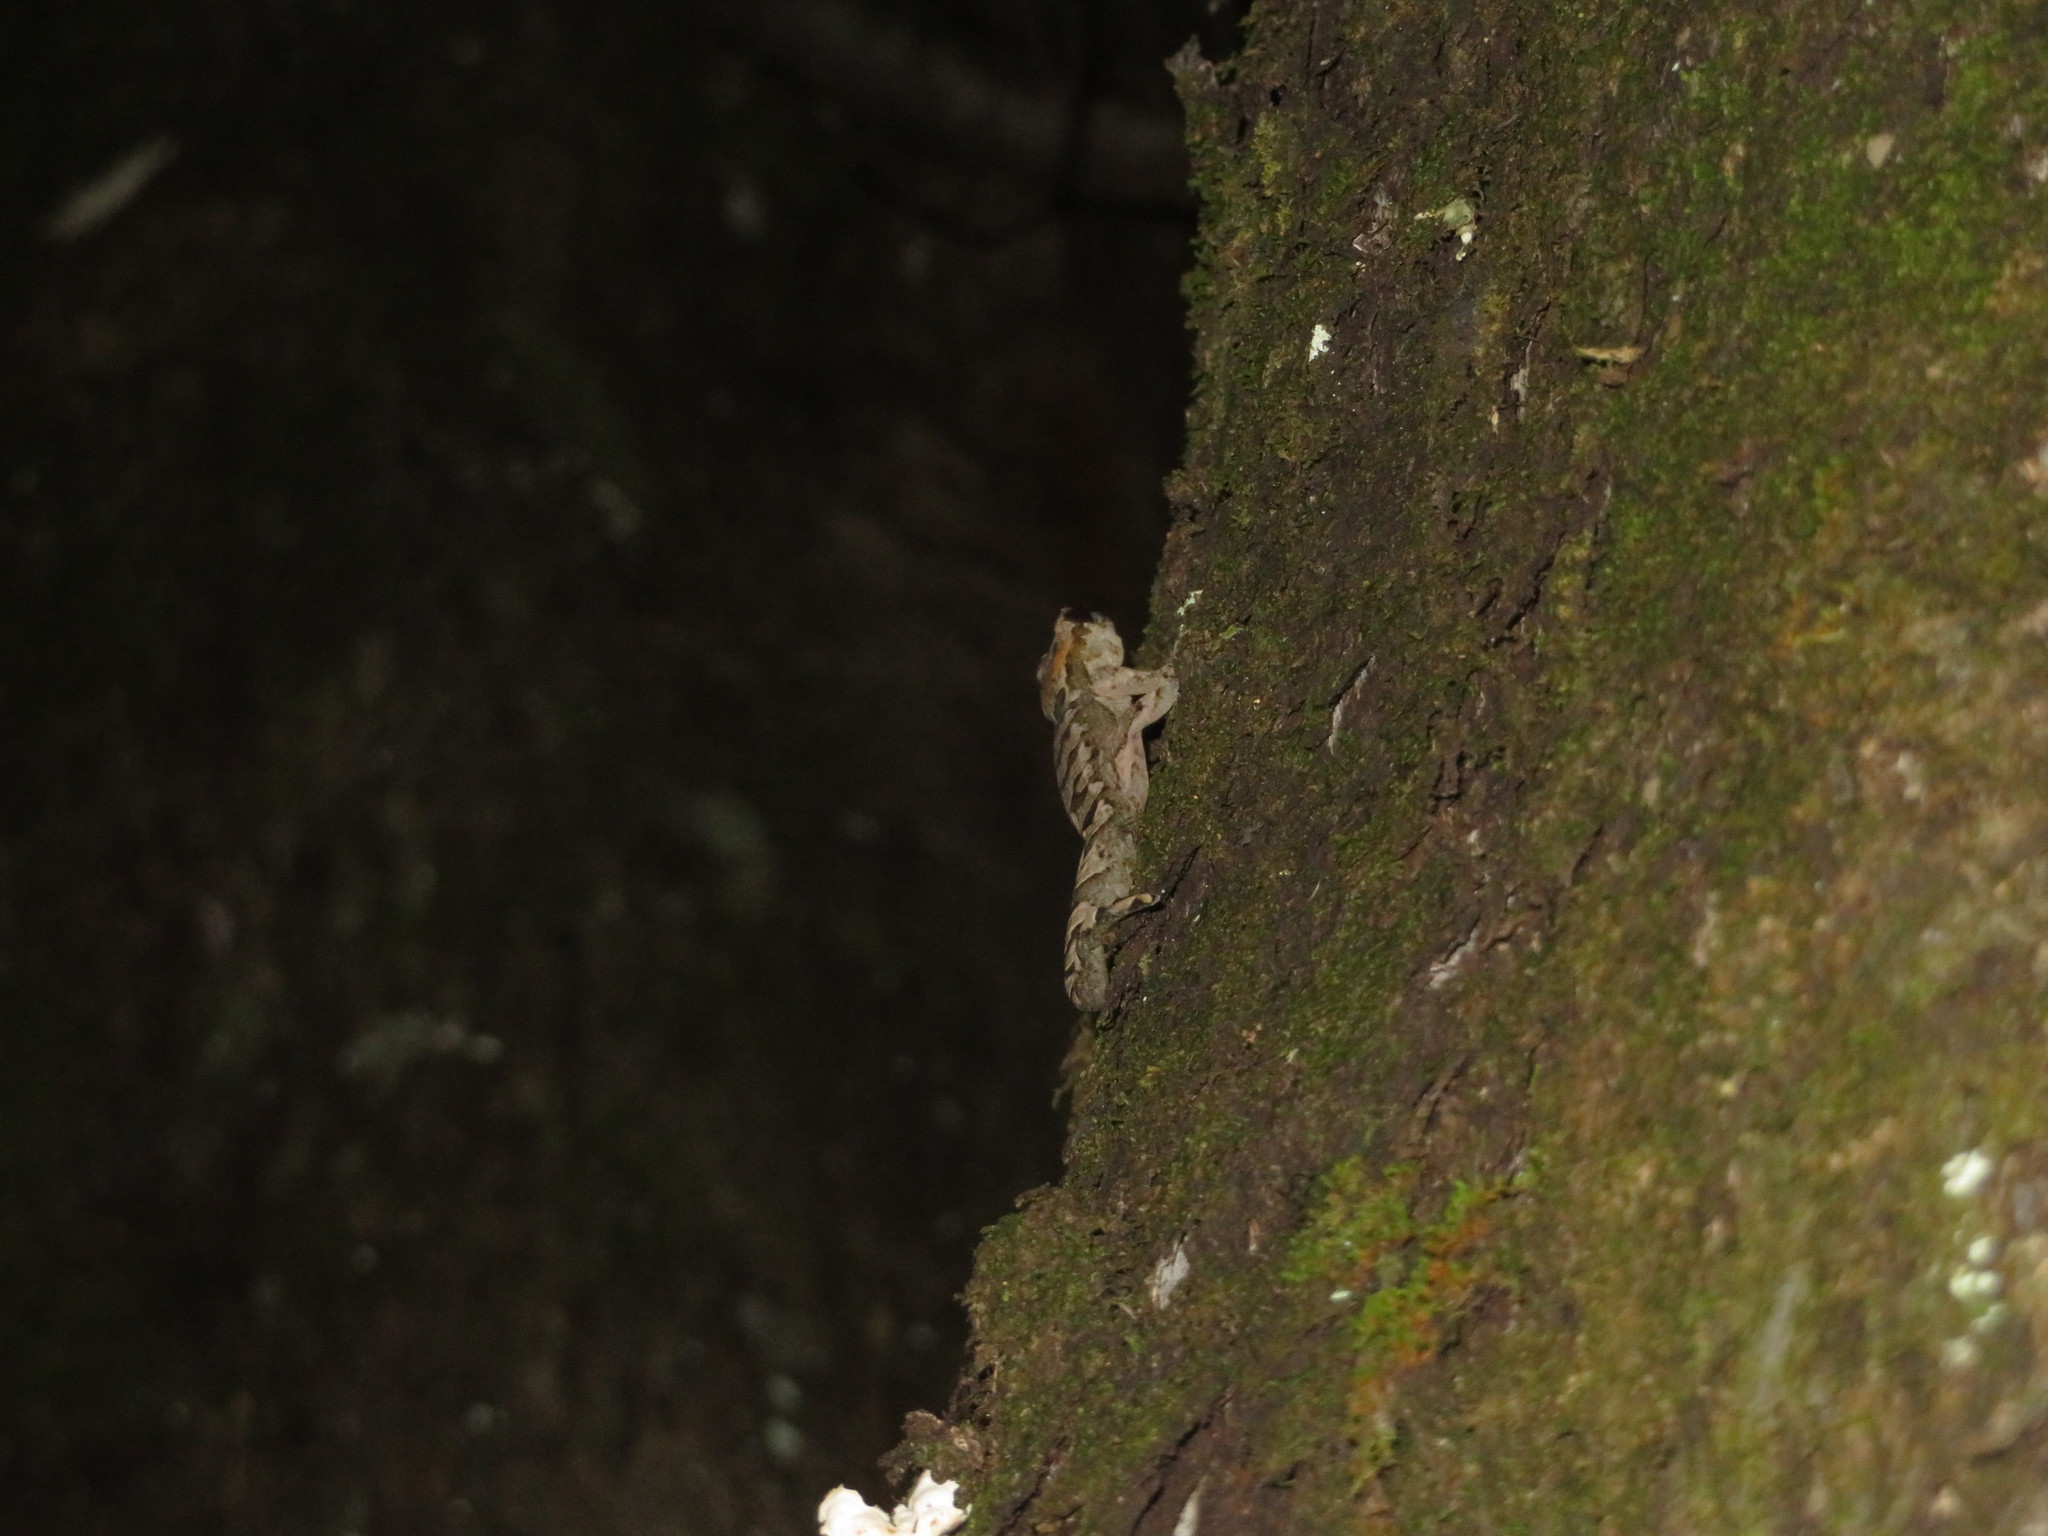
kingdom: Animalia
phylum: Chordata
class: Squamata
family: Diplodactylidae
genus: Dactylocnemis
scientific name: Dactylocnemis pacificus
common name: Pacific gecko
